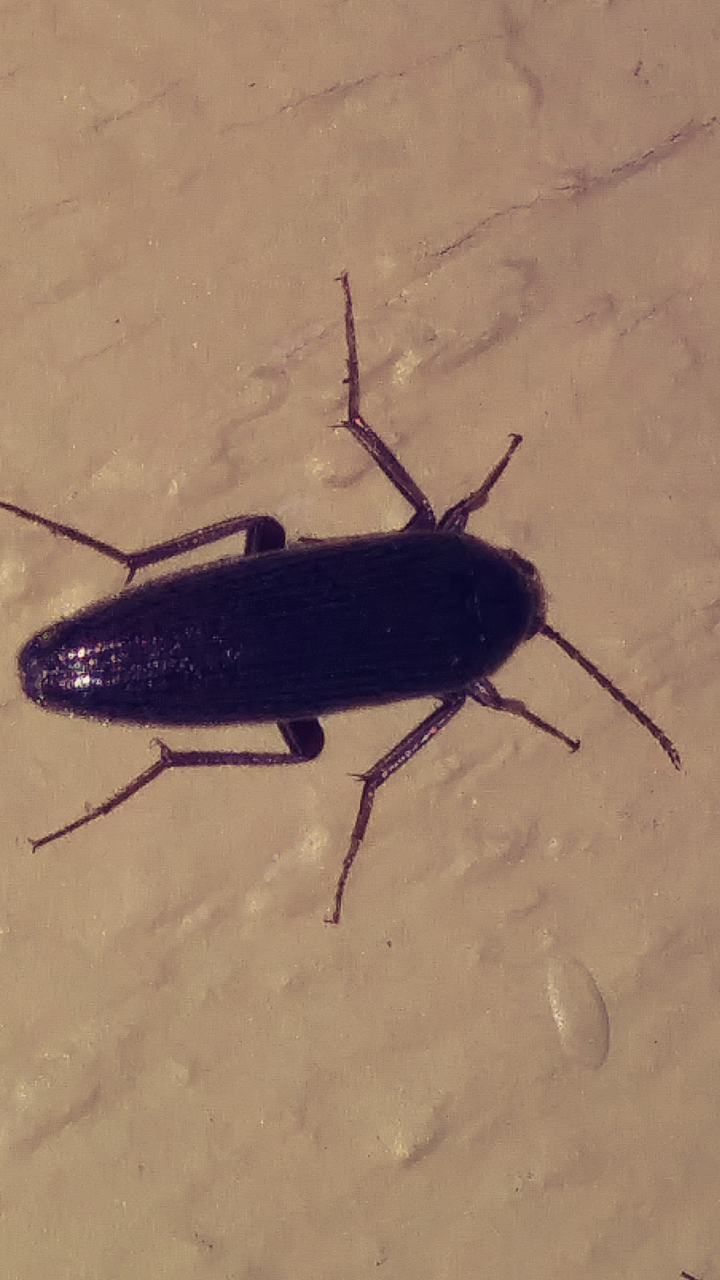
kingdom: Animalia
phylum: Arthropoda
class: Insecta
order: Coleoptera
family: Synchroidae
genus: Synchroa
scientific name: Synchroa punctata
